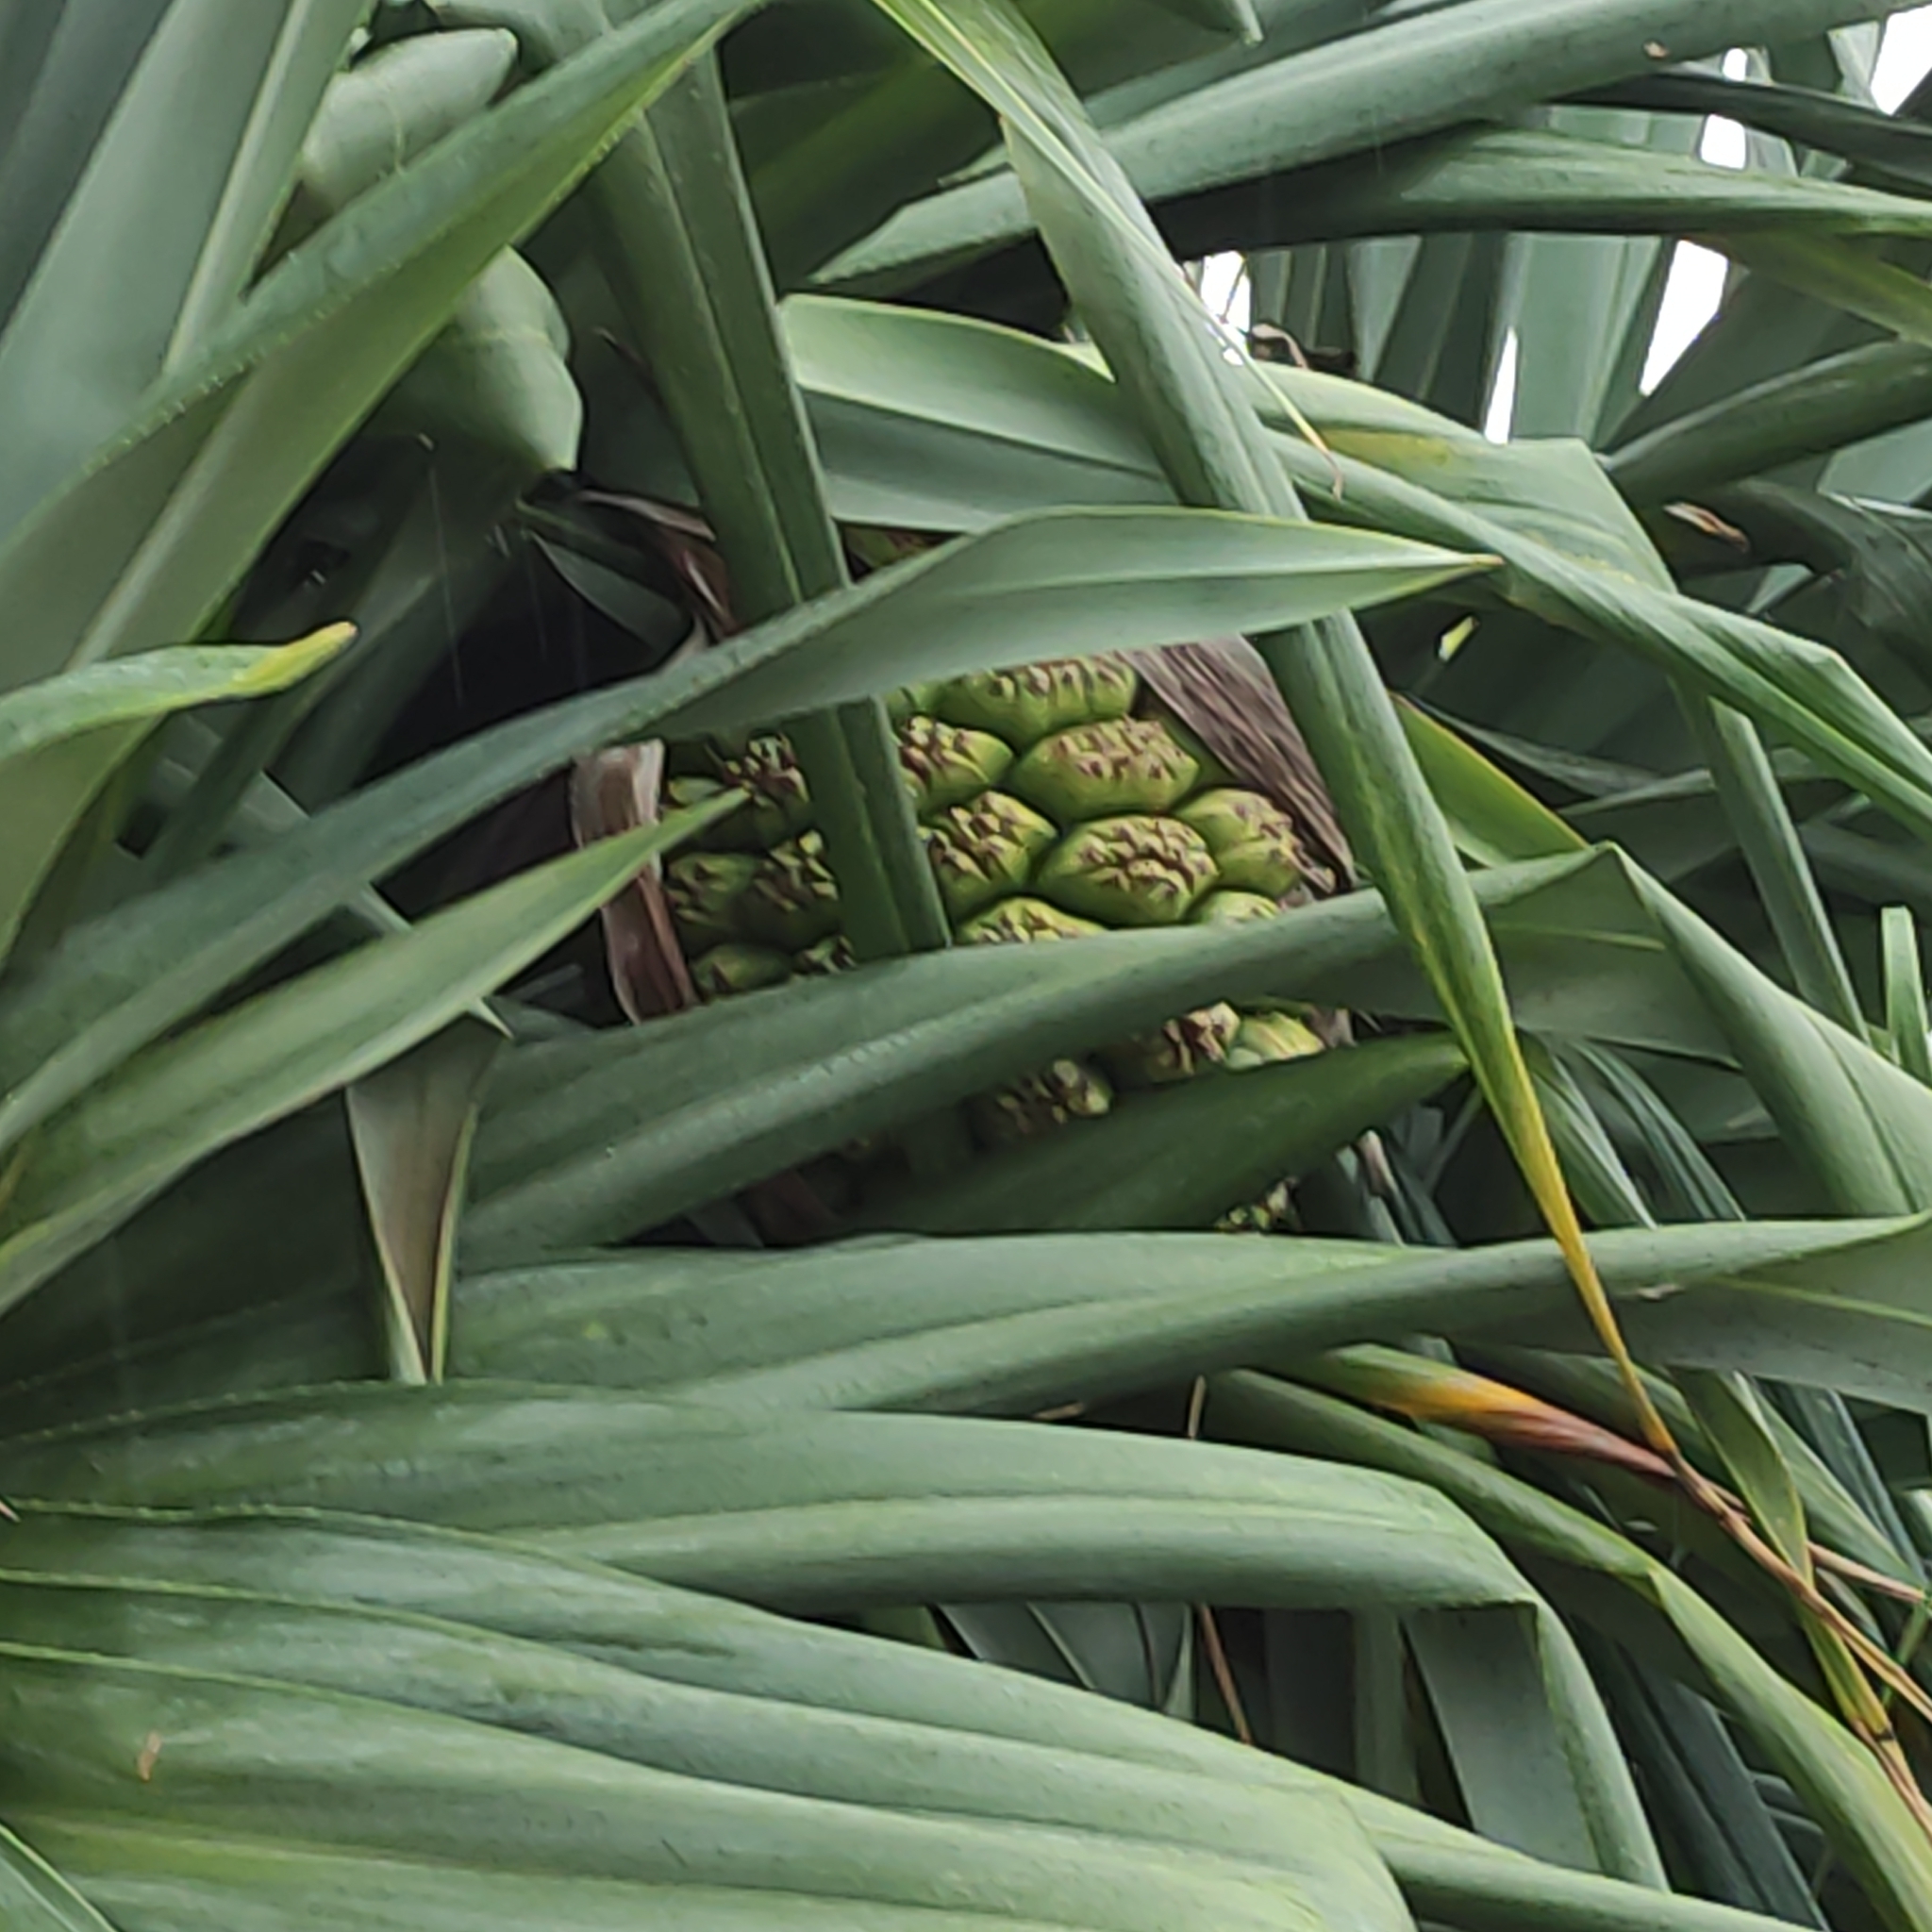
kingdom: Plantae
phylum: Tracheophyta
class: Liliopsida
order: Pandanales
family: Pandanaceae
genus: Pandanus
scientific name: Pandanus tectorius
